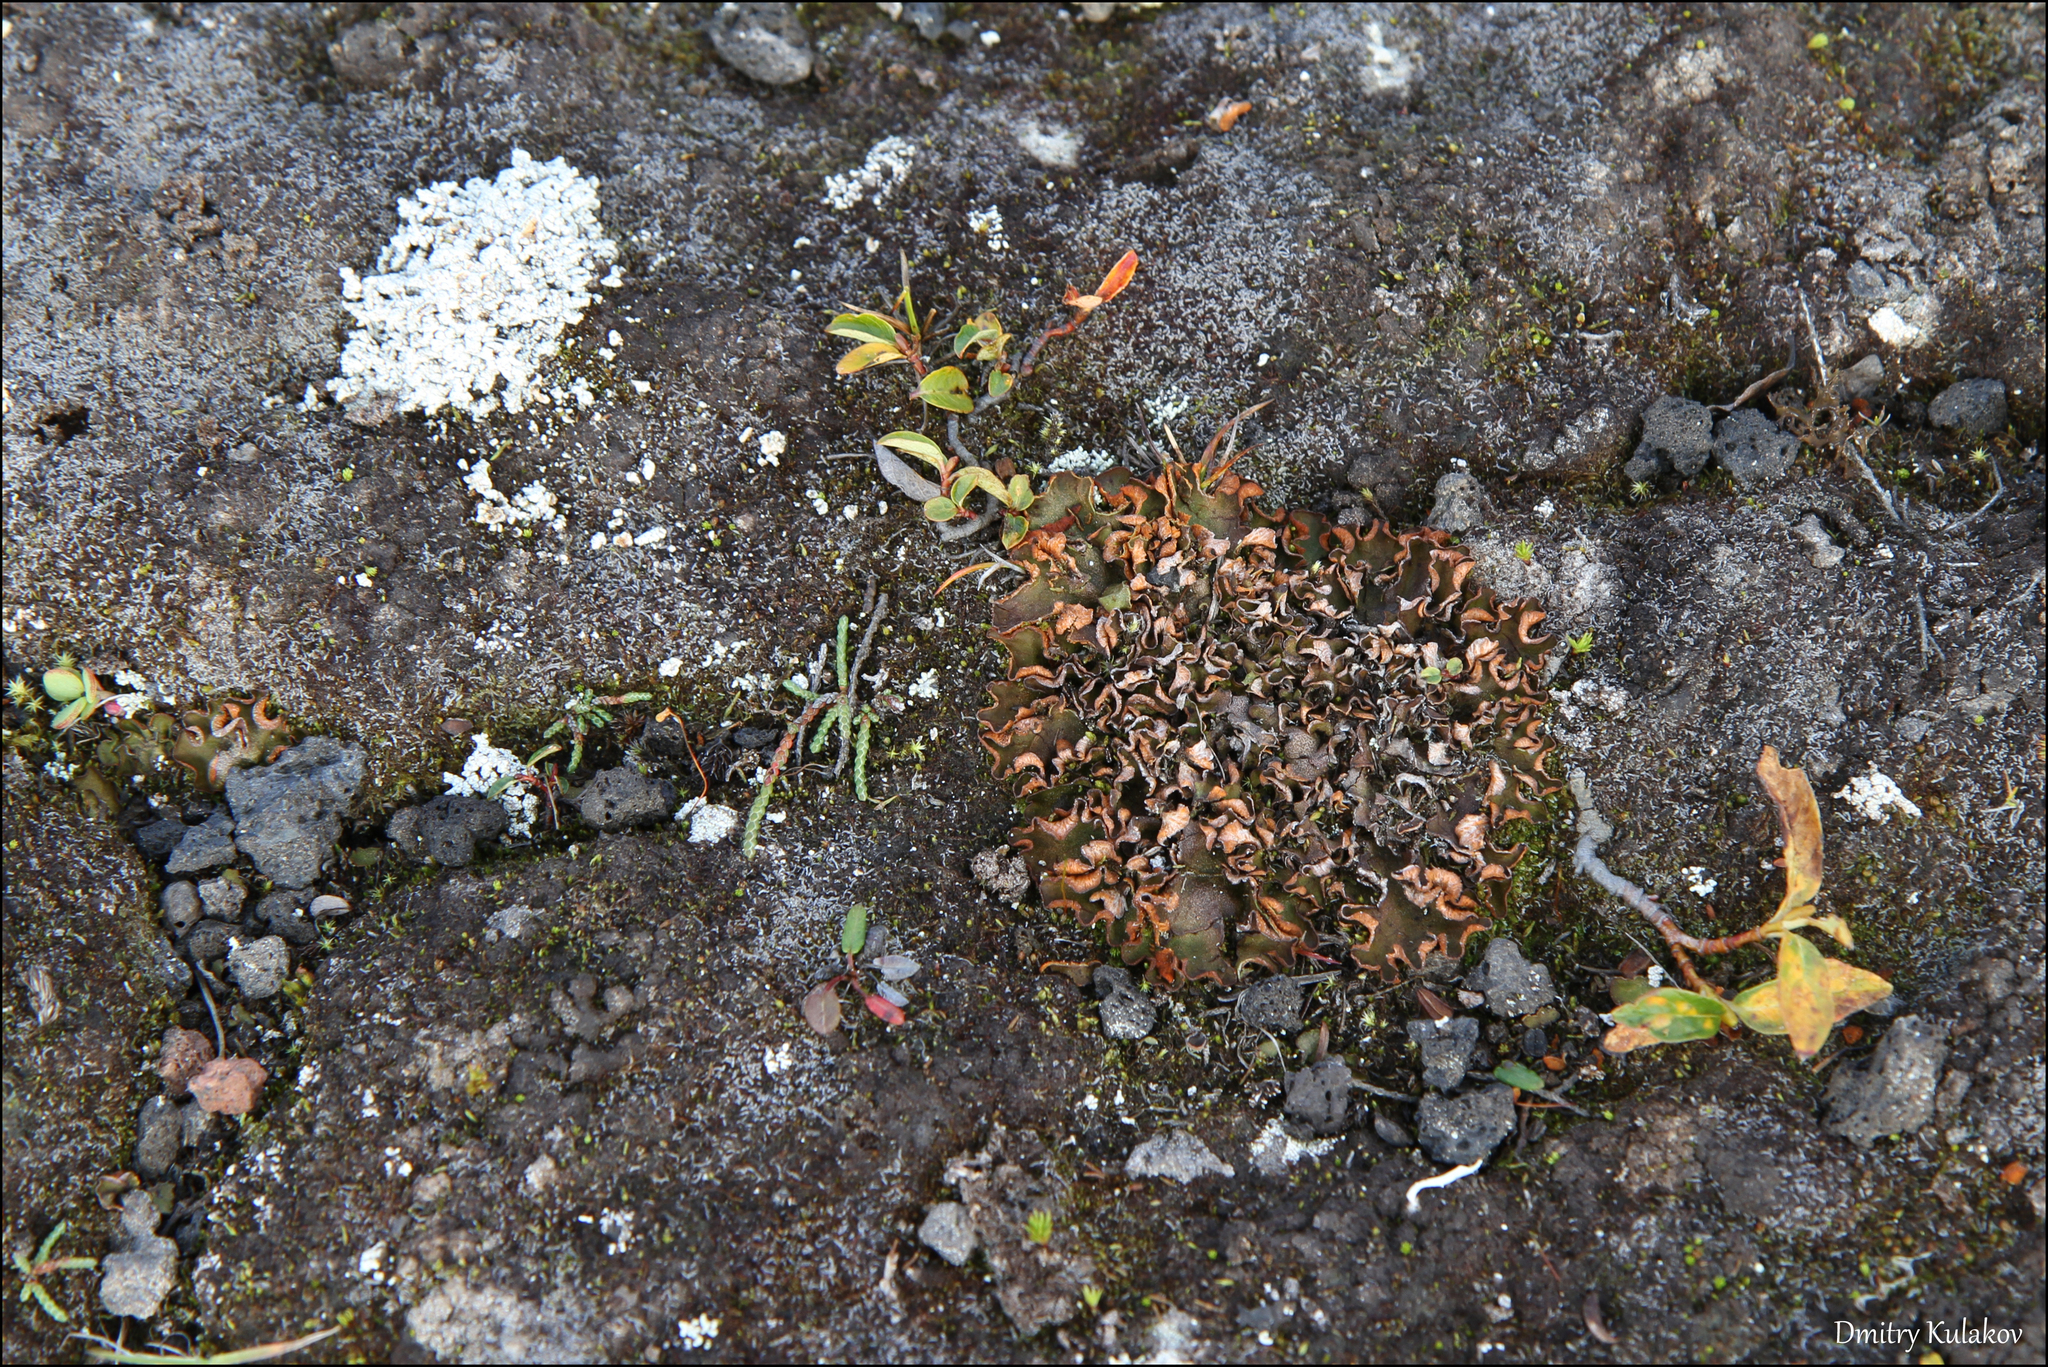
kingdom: Fungi
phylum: Ascomycota
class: Lecanoromycetes
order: Peltigerales
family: Peltigeraceae
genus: Solorina
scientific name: Solorina crocea
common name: Mountain saffron
